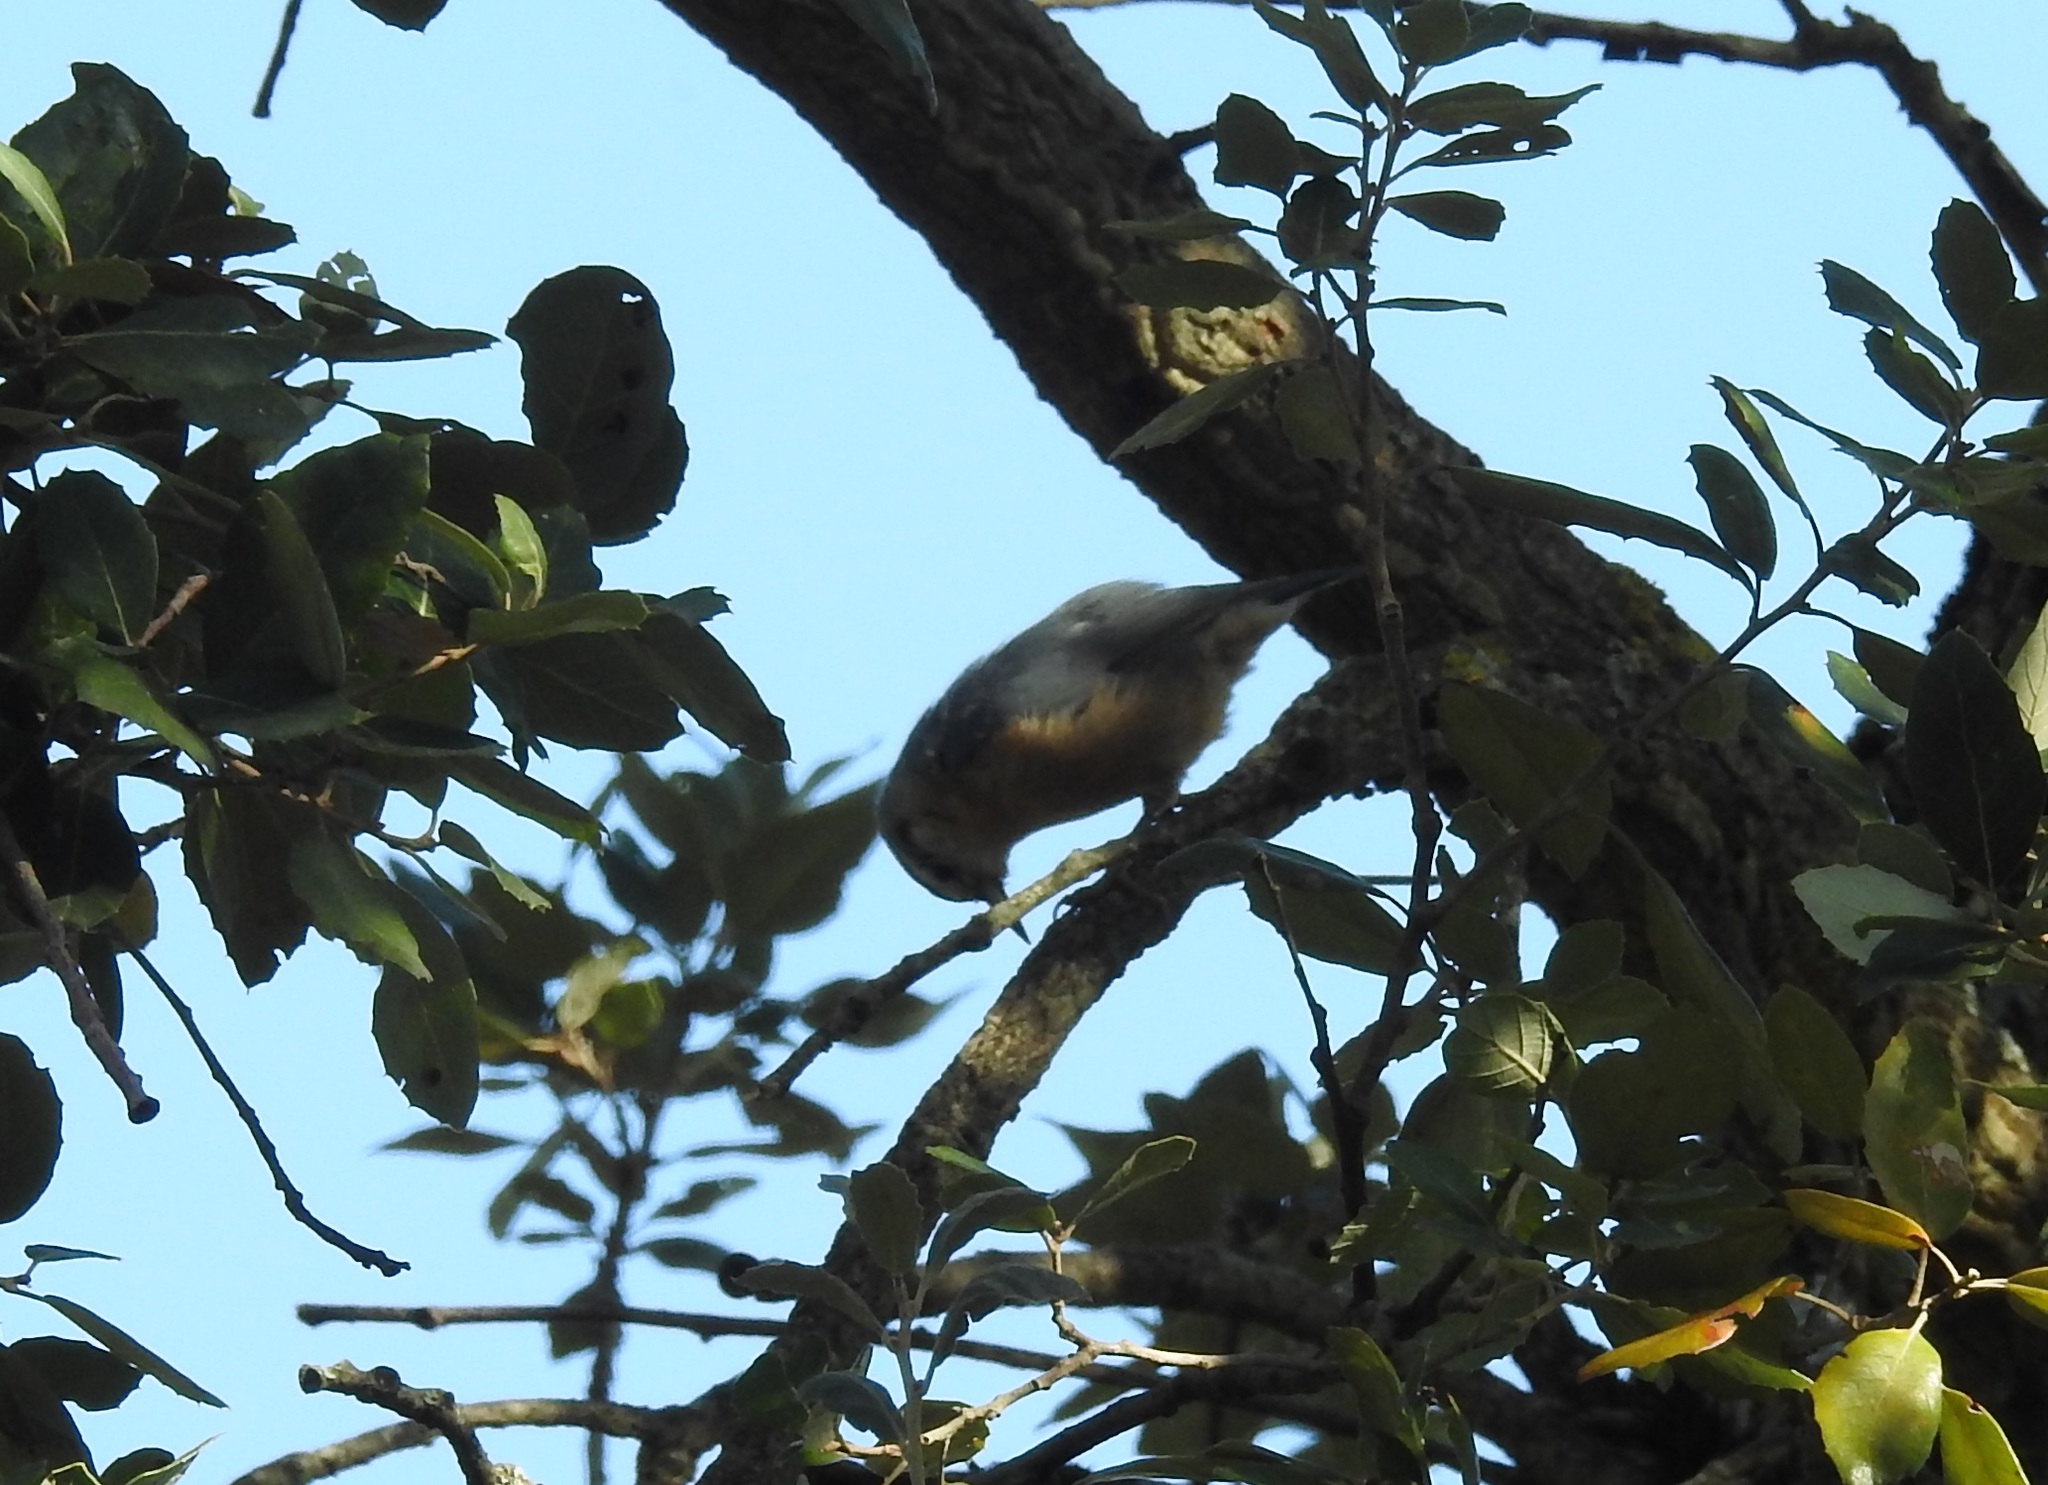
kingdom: Animalia
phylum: Chordata
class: Aves
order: Passeriformes
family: Sittidae
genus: Sitta
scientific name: Sitta ledanti
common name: Algerian nuthatch
